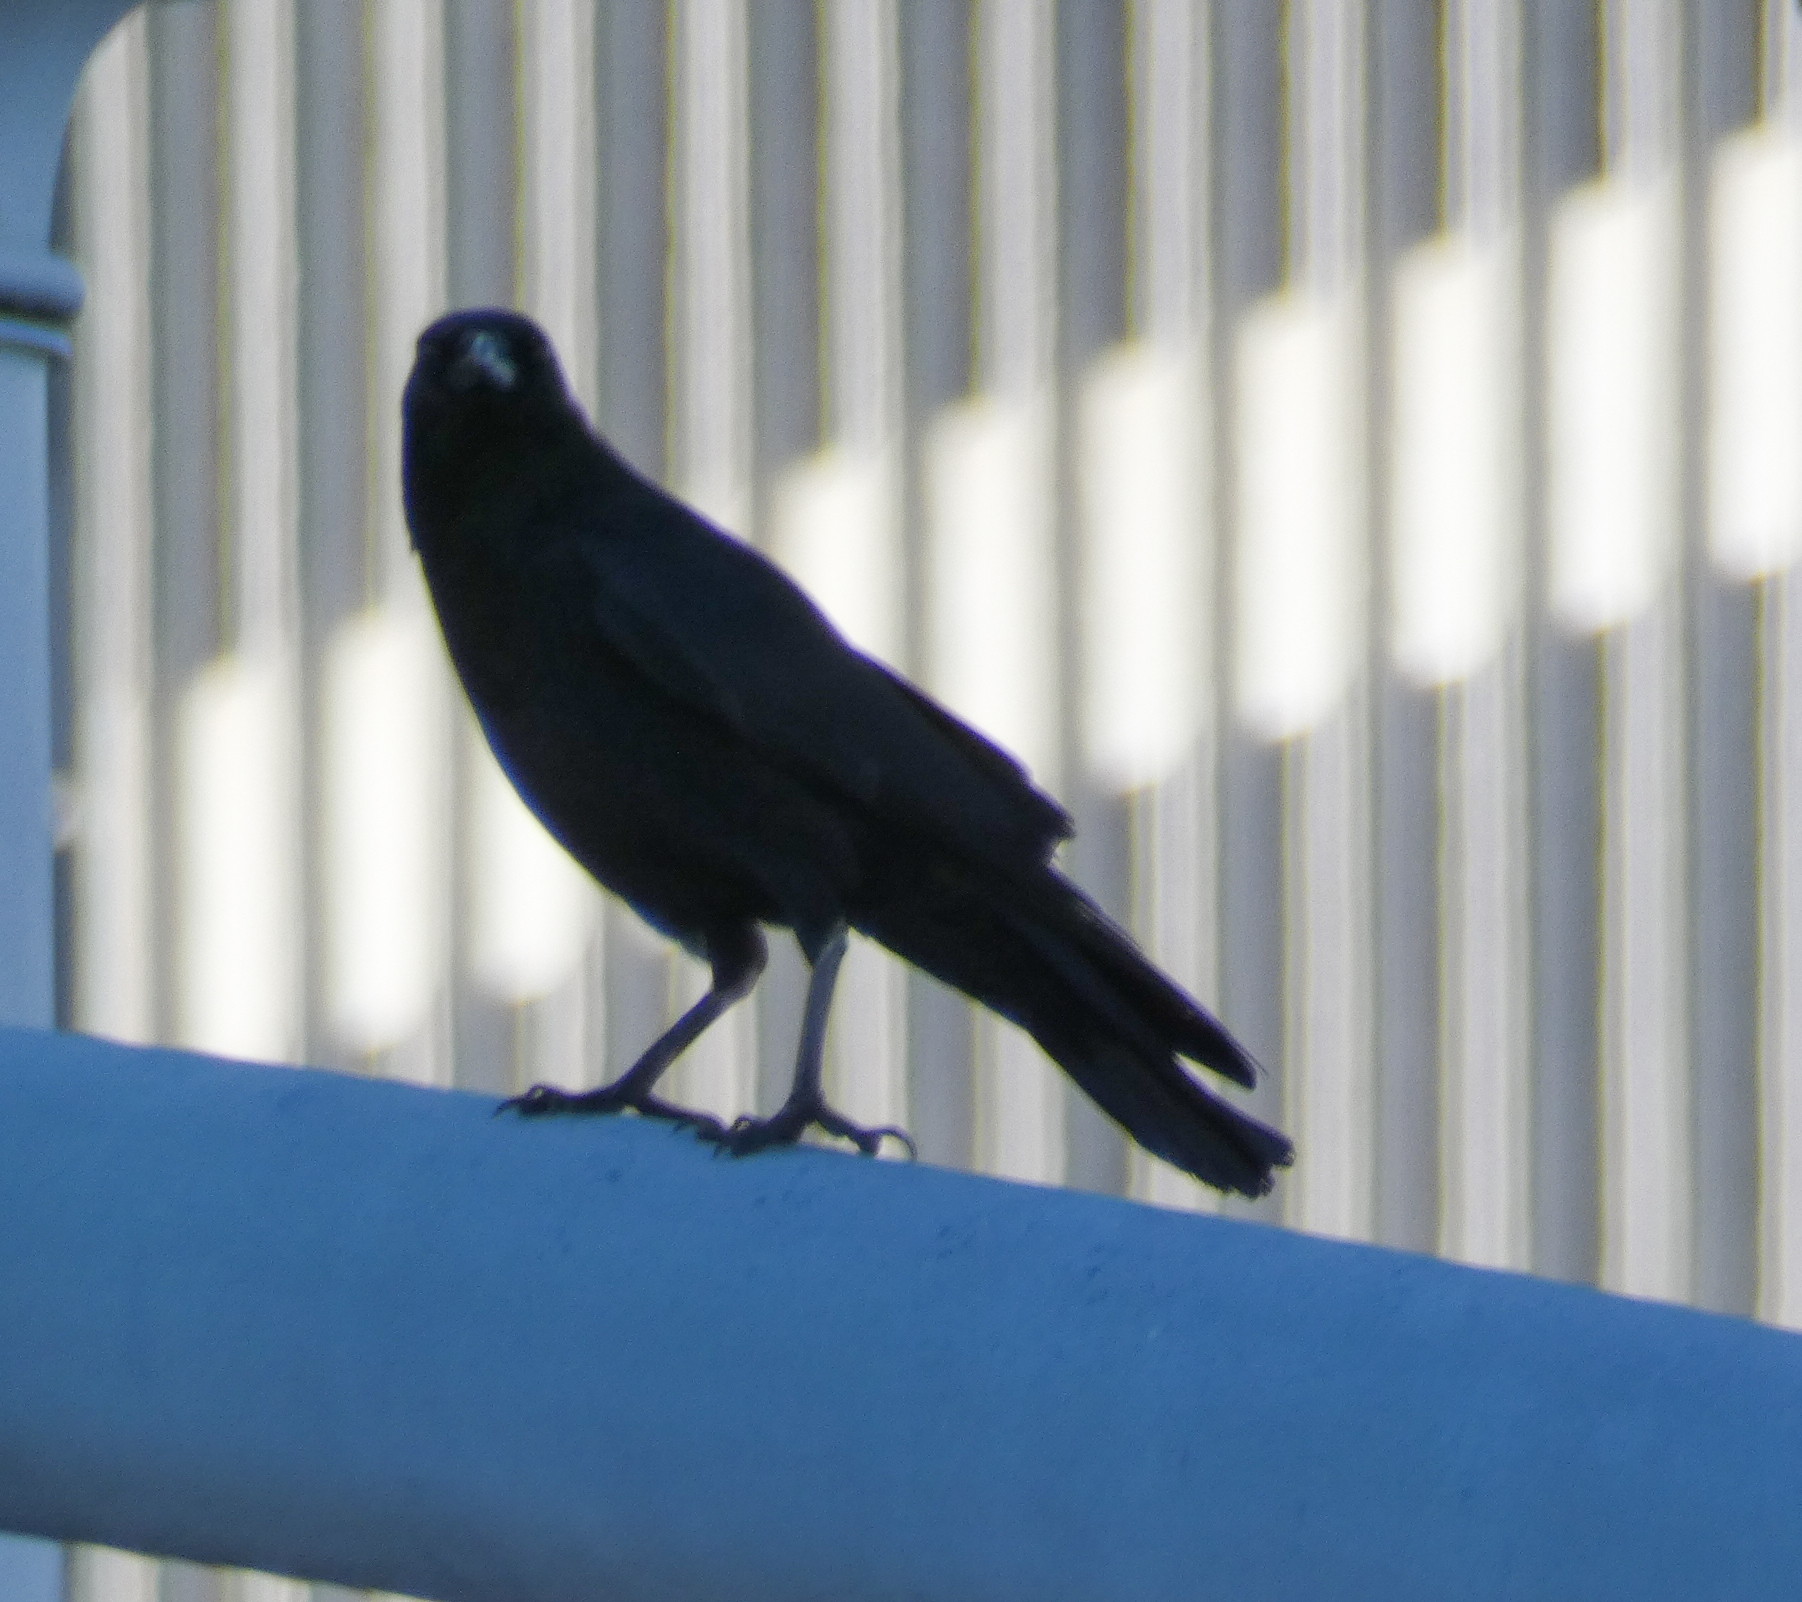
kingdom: Animalia
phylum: Chordata
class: Aves
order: Passeriformes
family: Corvidae
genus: Corvus
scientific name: Corvus brachyrhynchos
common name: American crow
